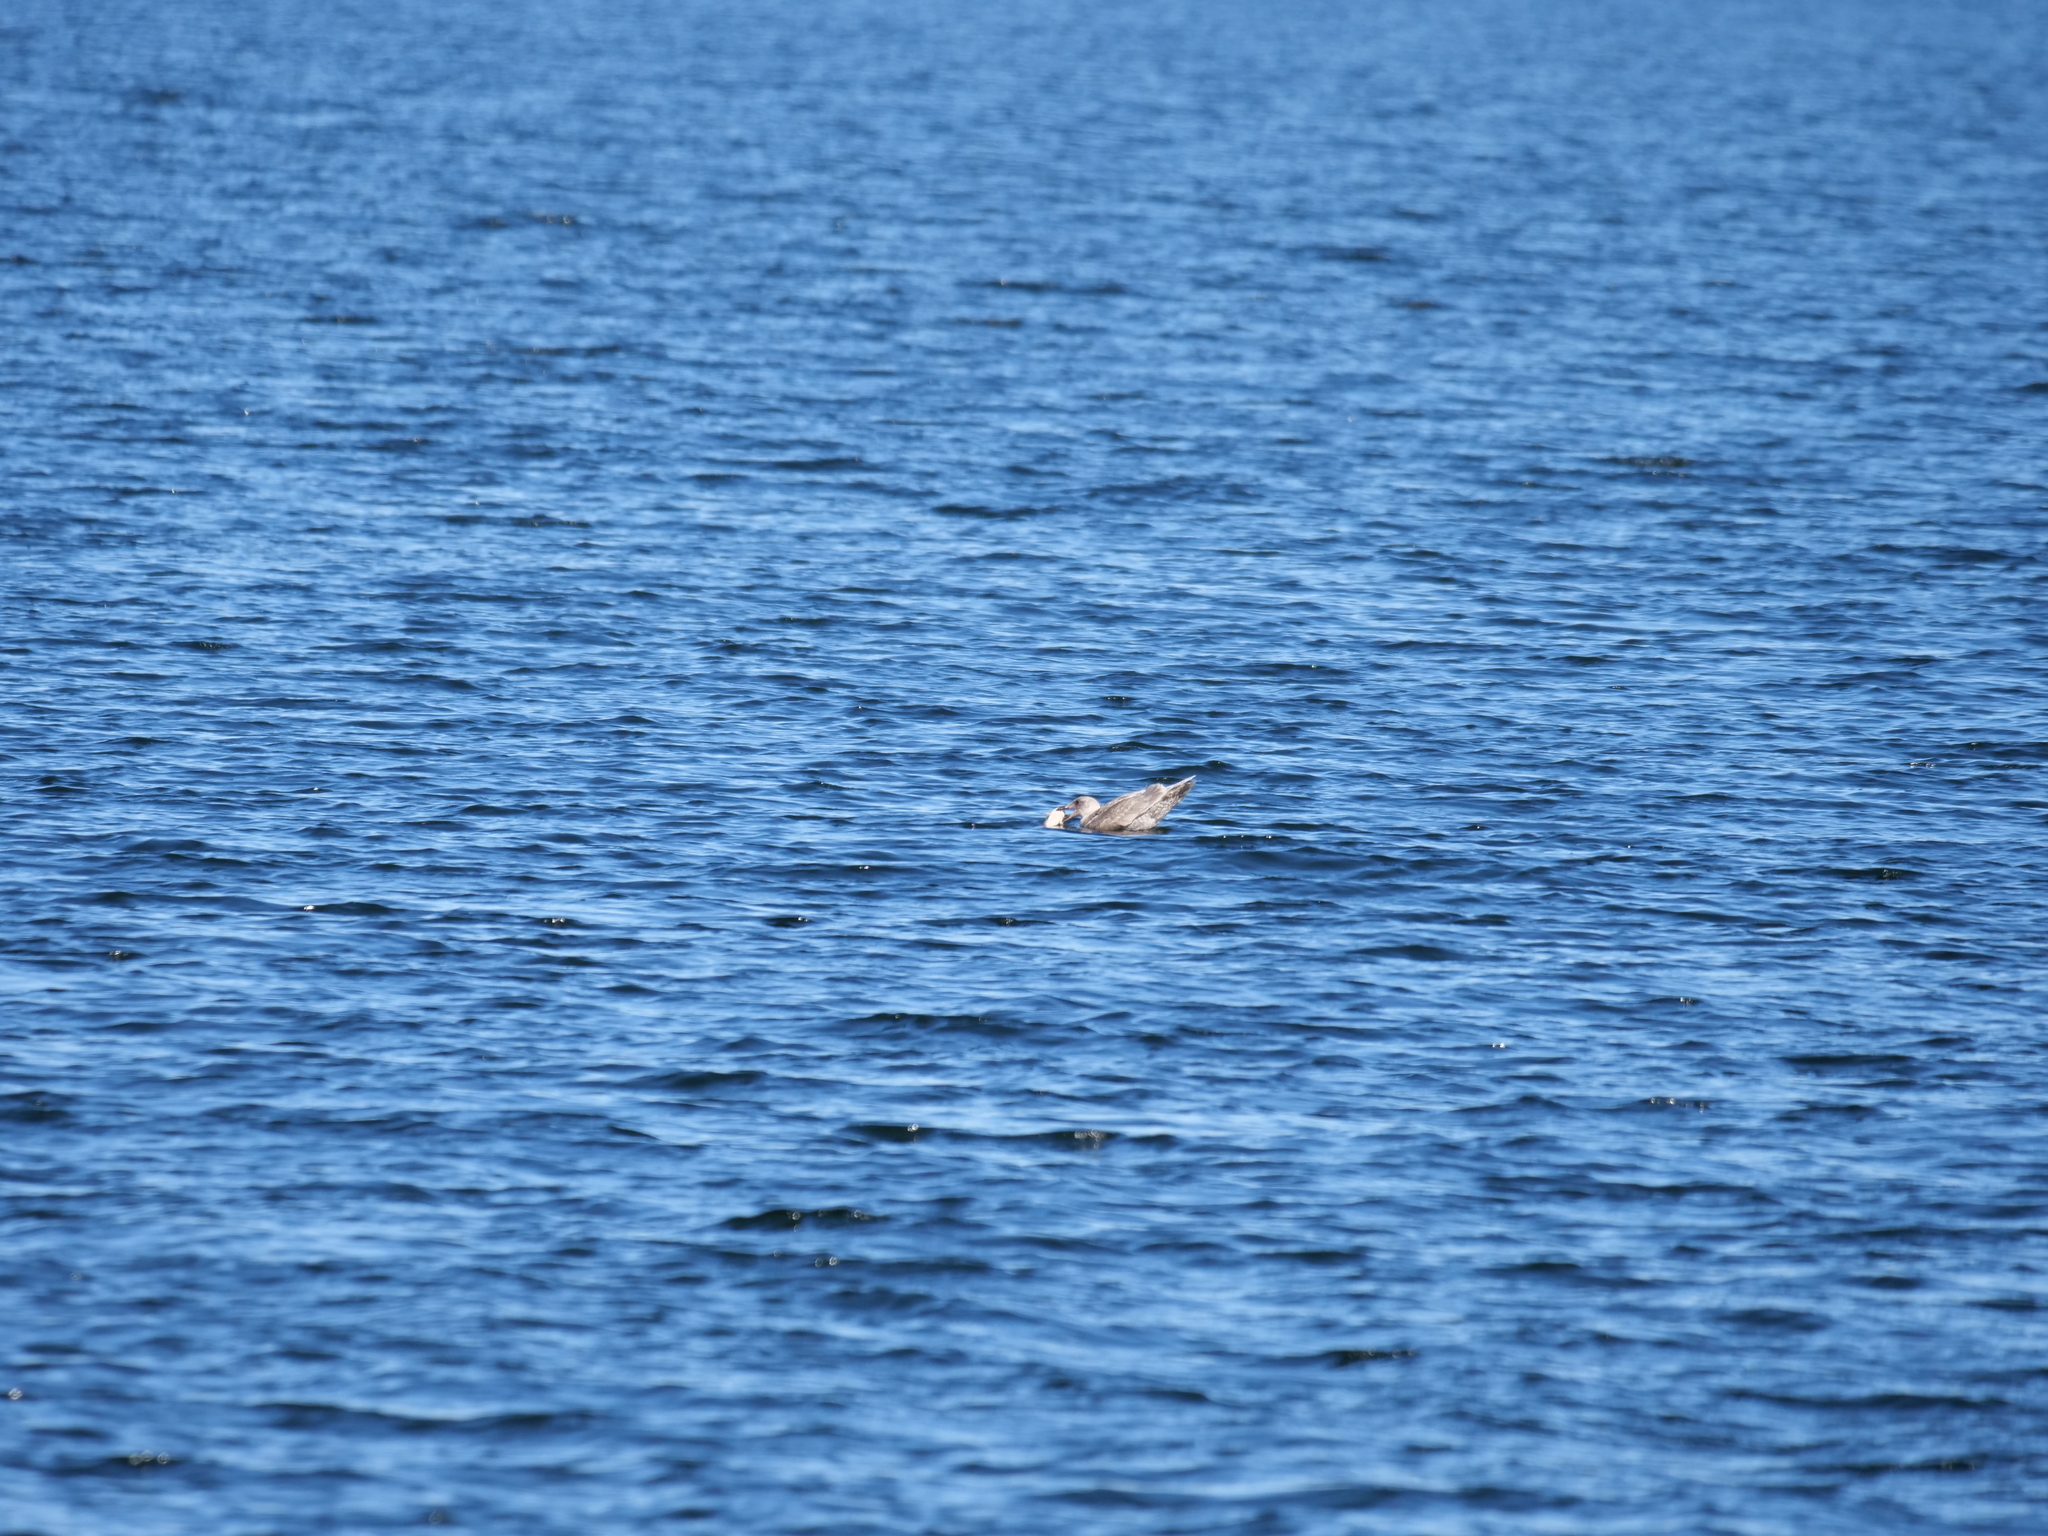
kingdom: Animalia
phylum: Chordata
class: Aves
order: Charadriiformes
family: Laridae
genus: Larus
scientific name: Larus
